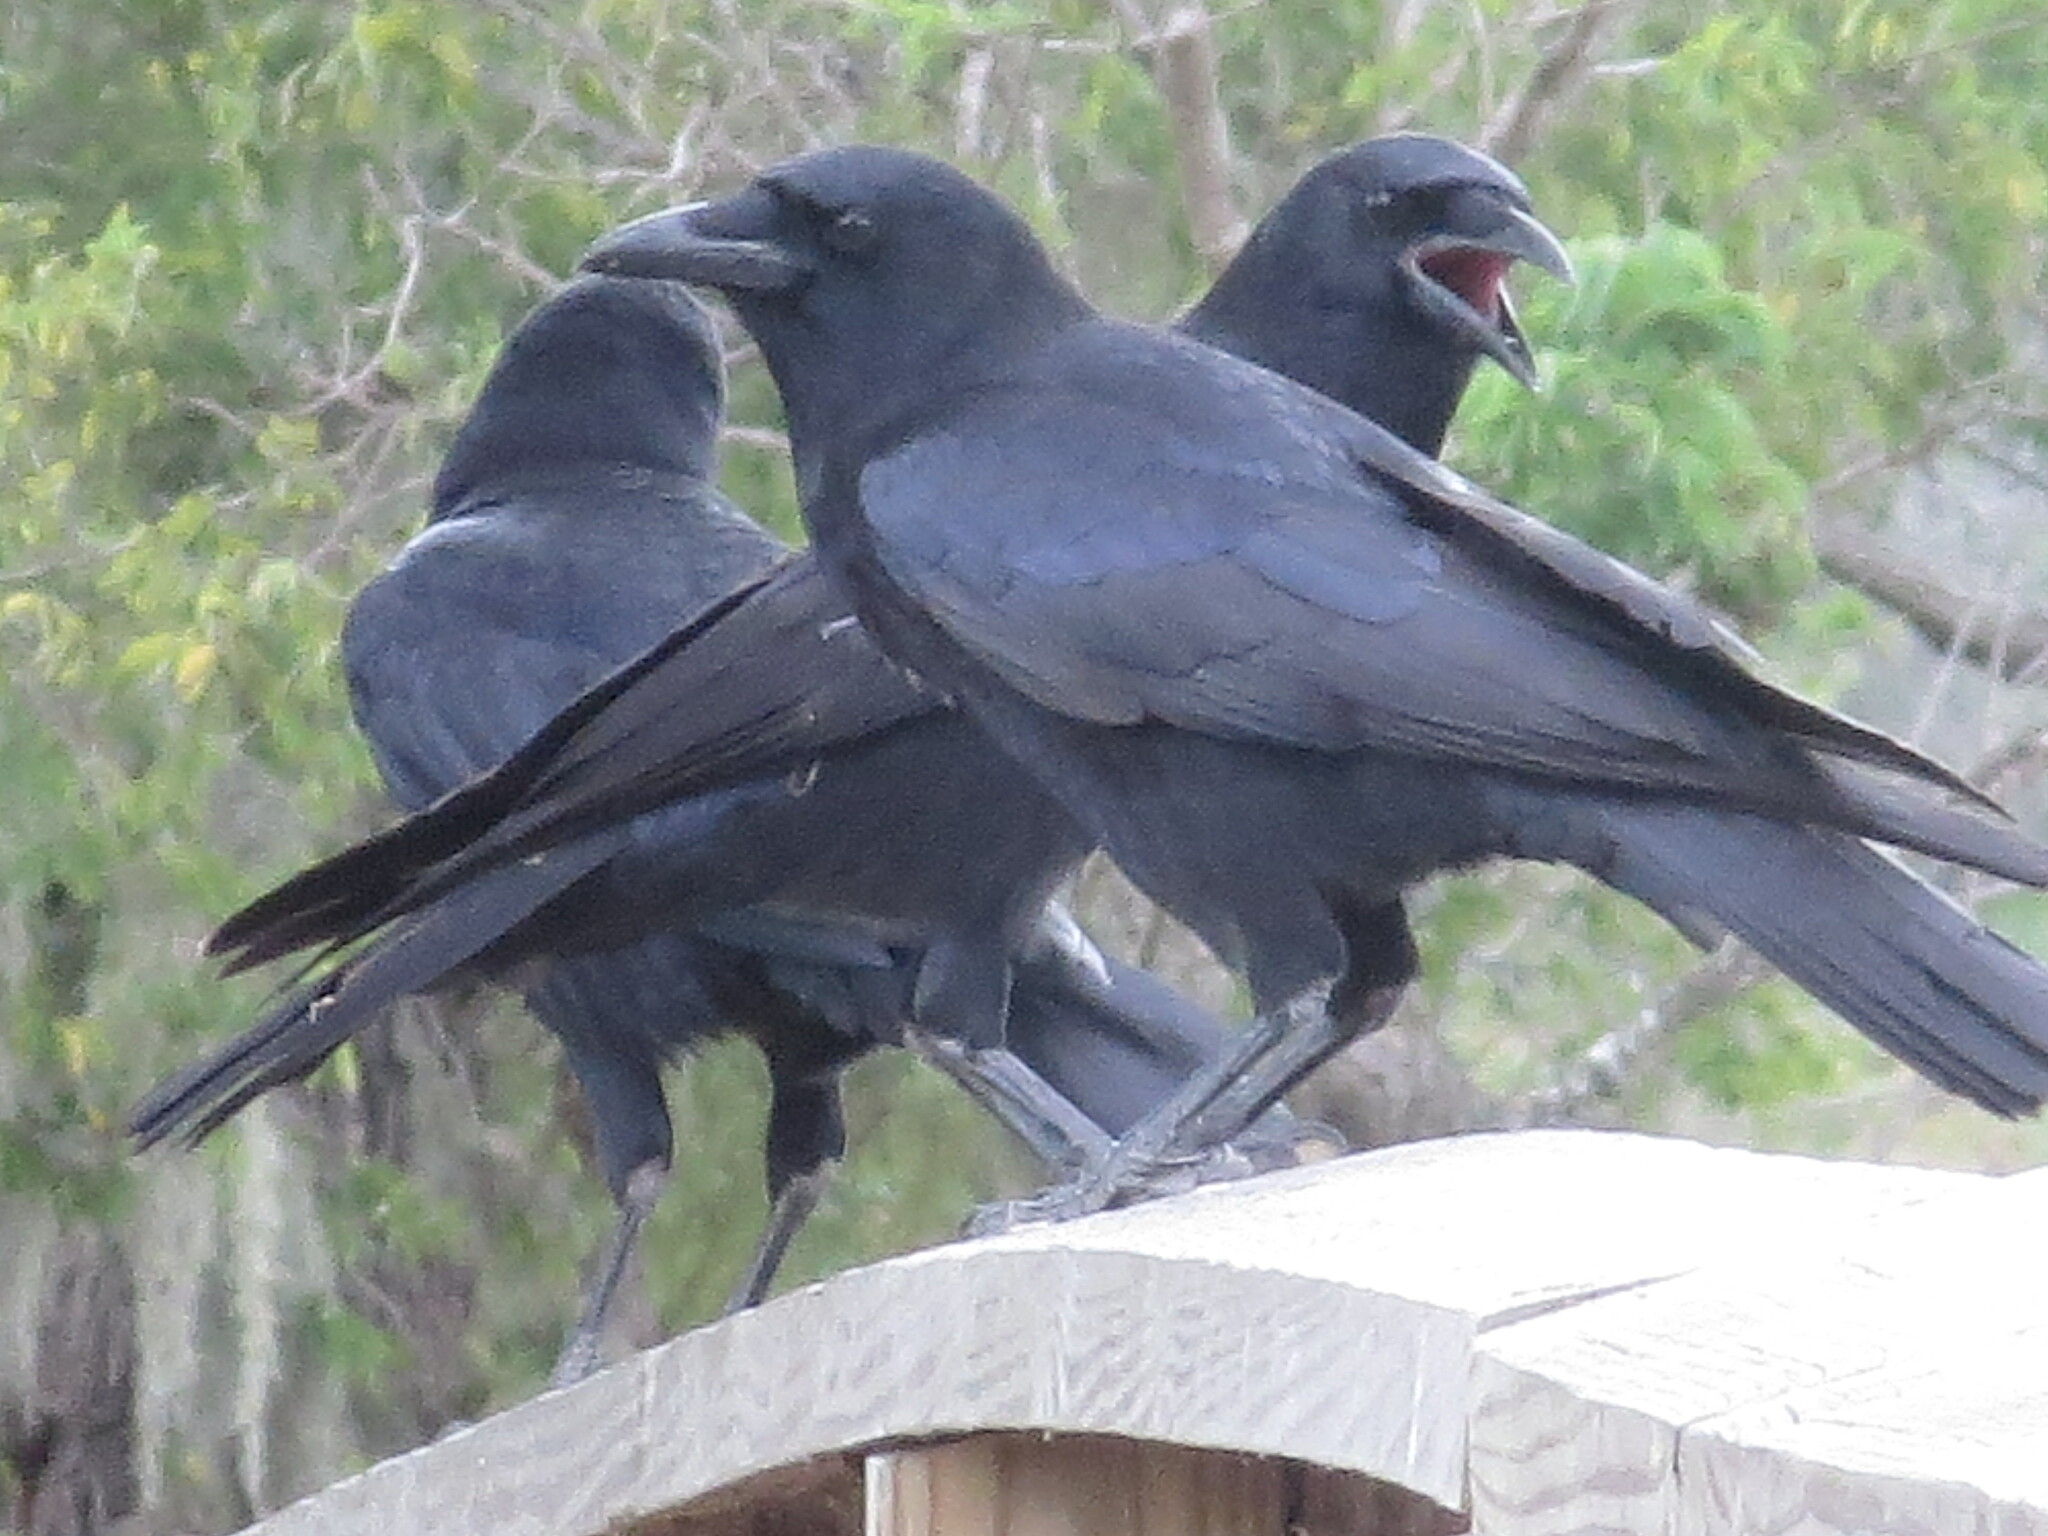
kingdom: Animalia
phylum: Chordata
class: Aves
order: Passeriformes
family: Corvidae
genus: Corvus
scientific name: Corvus brachyrhynchos
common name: American crow
